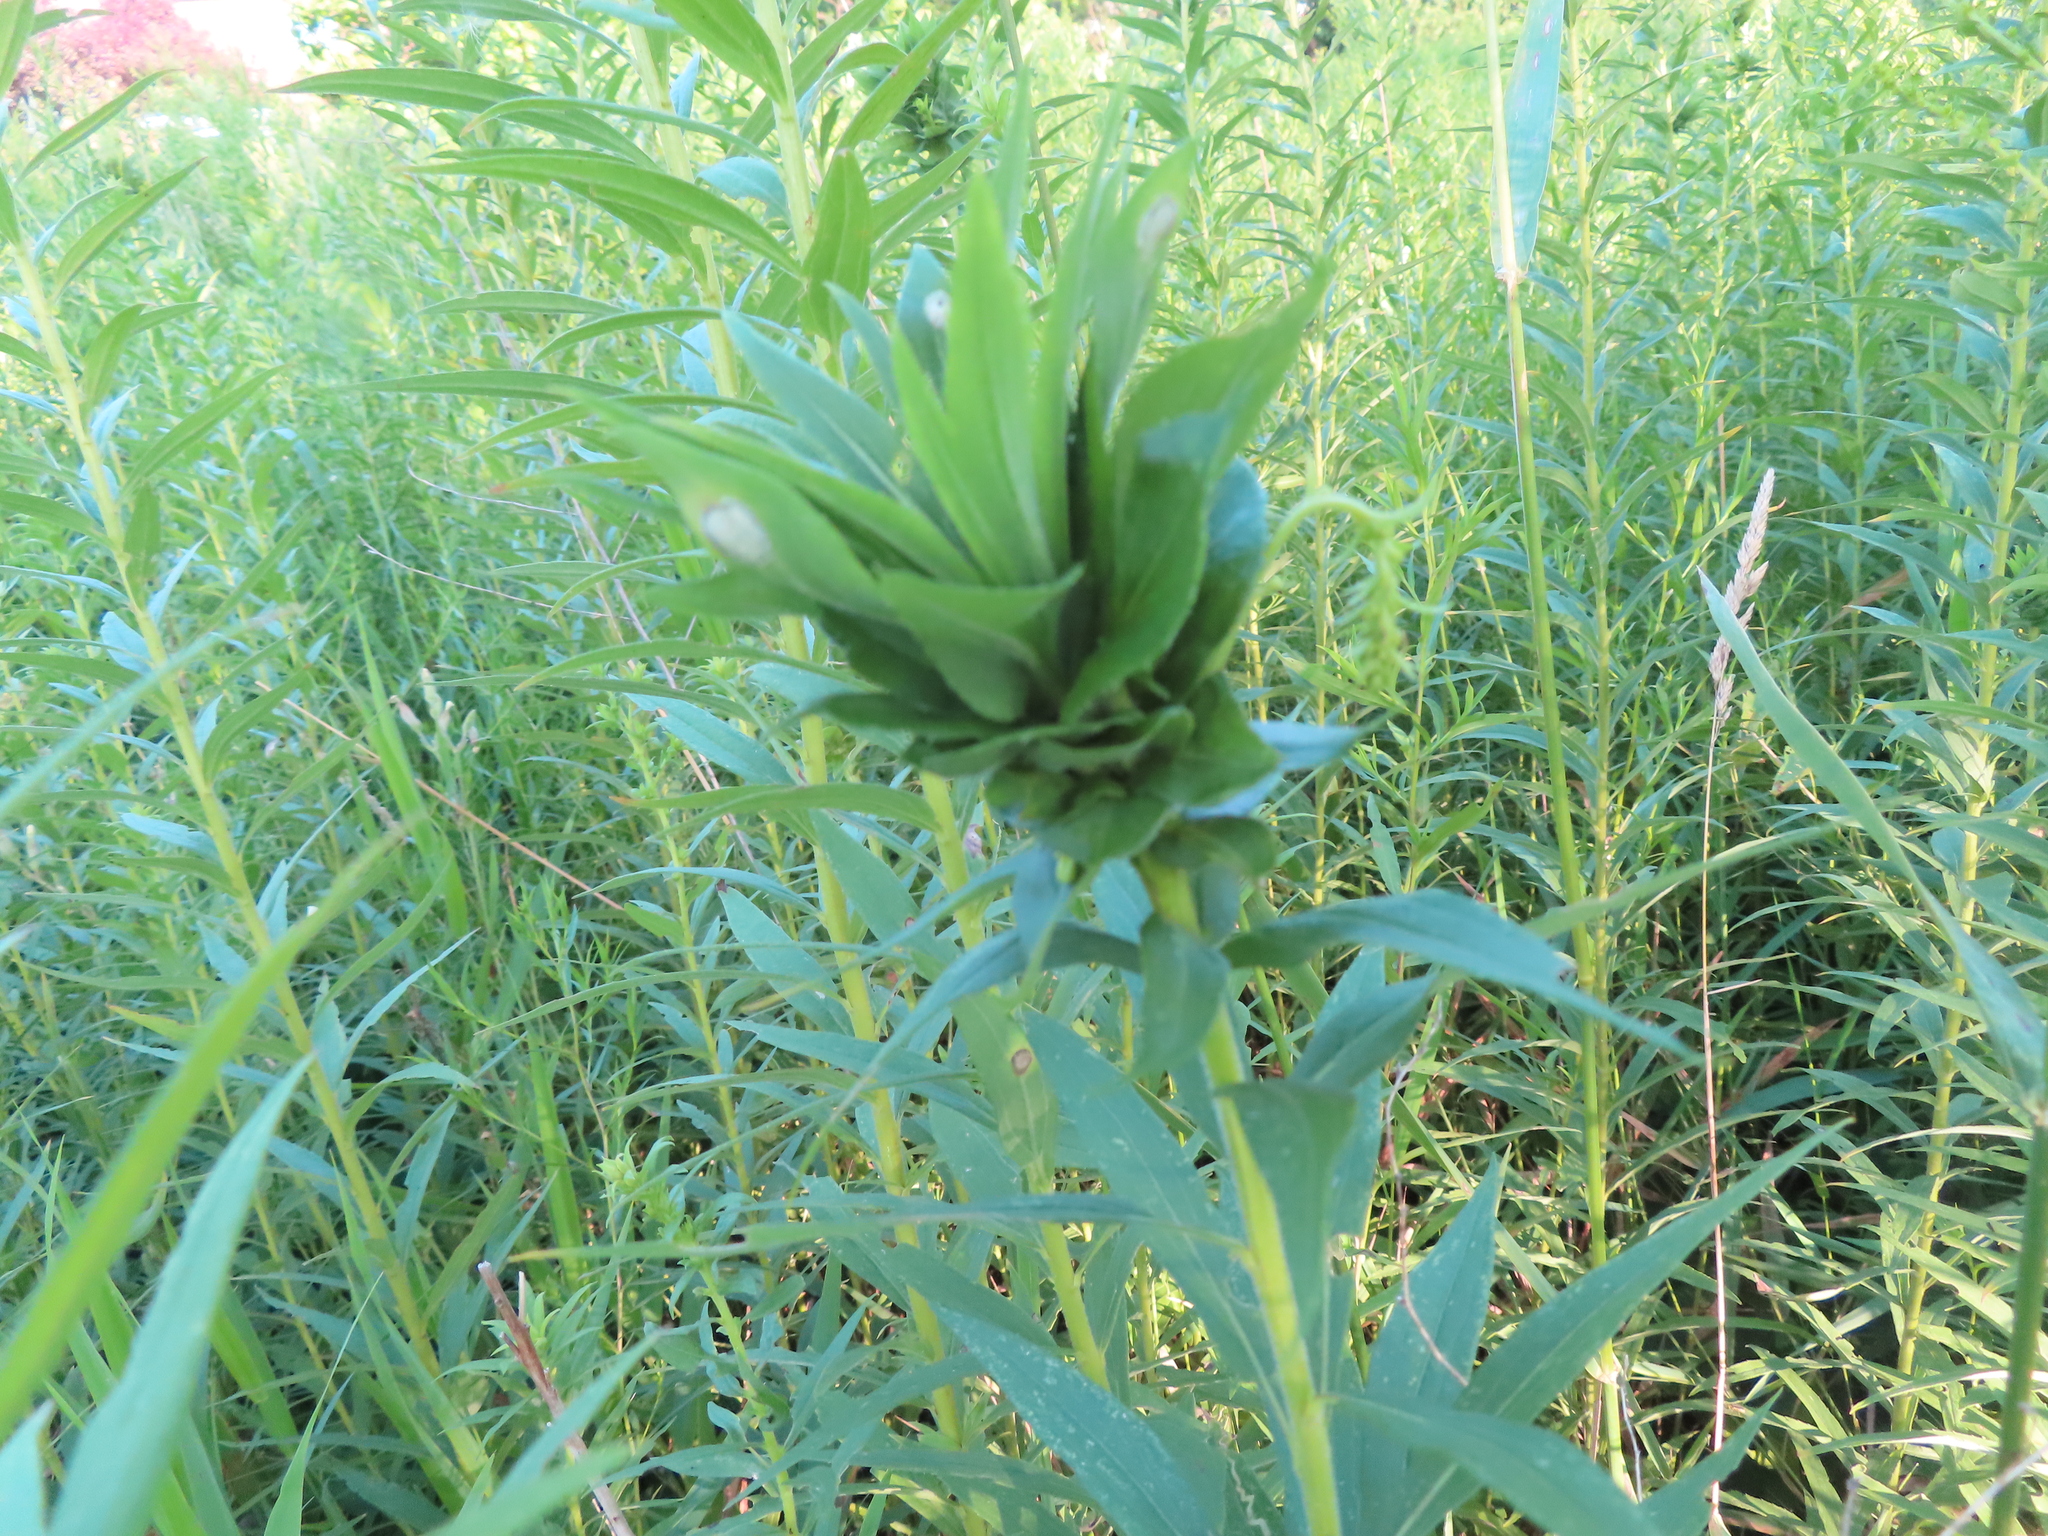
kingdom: Animalia
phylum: Arthropoda
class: Insecta
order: Diptera
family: Cecidomyiidae
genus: Rhopalomyia
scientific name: Rhopalomyia solidaginis
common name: Goldenrod bunch gall midge
